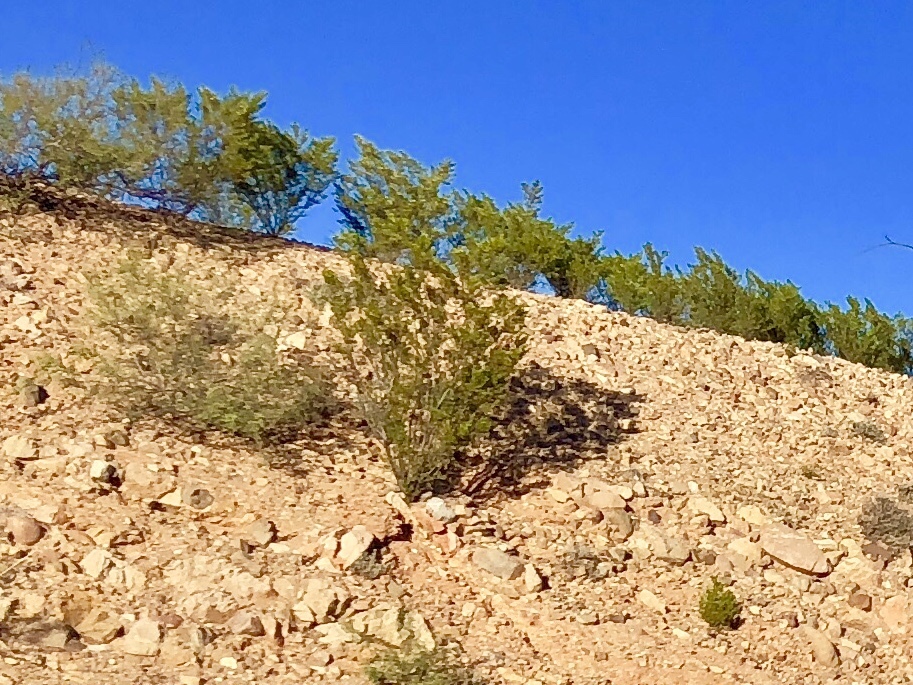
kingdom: Plantae
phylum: Tracheophyta
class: Magnoliopsida
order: Zygophyllales
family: Zygophyllaceae
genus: Larrea
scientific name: Larrea tridentata
